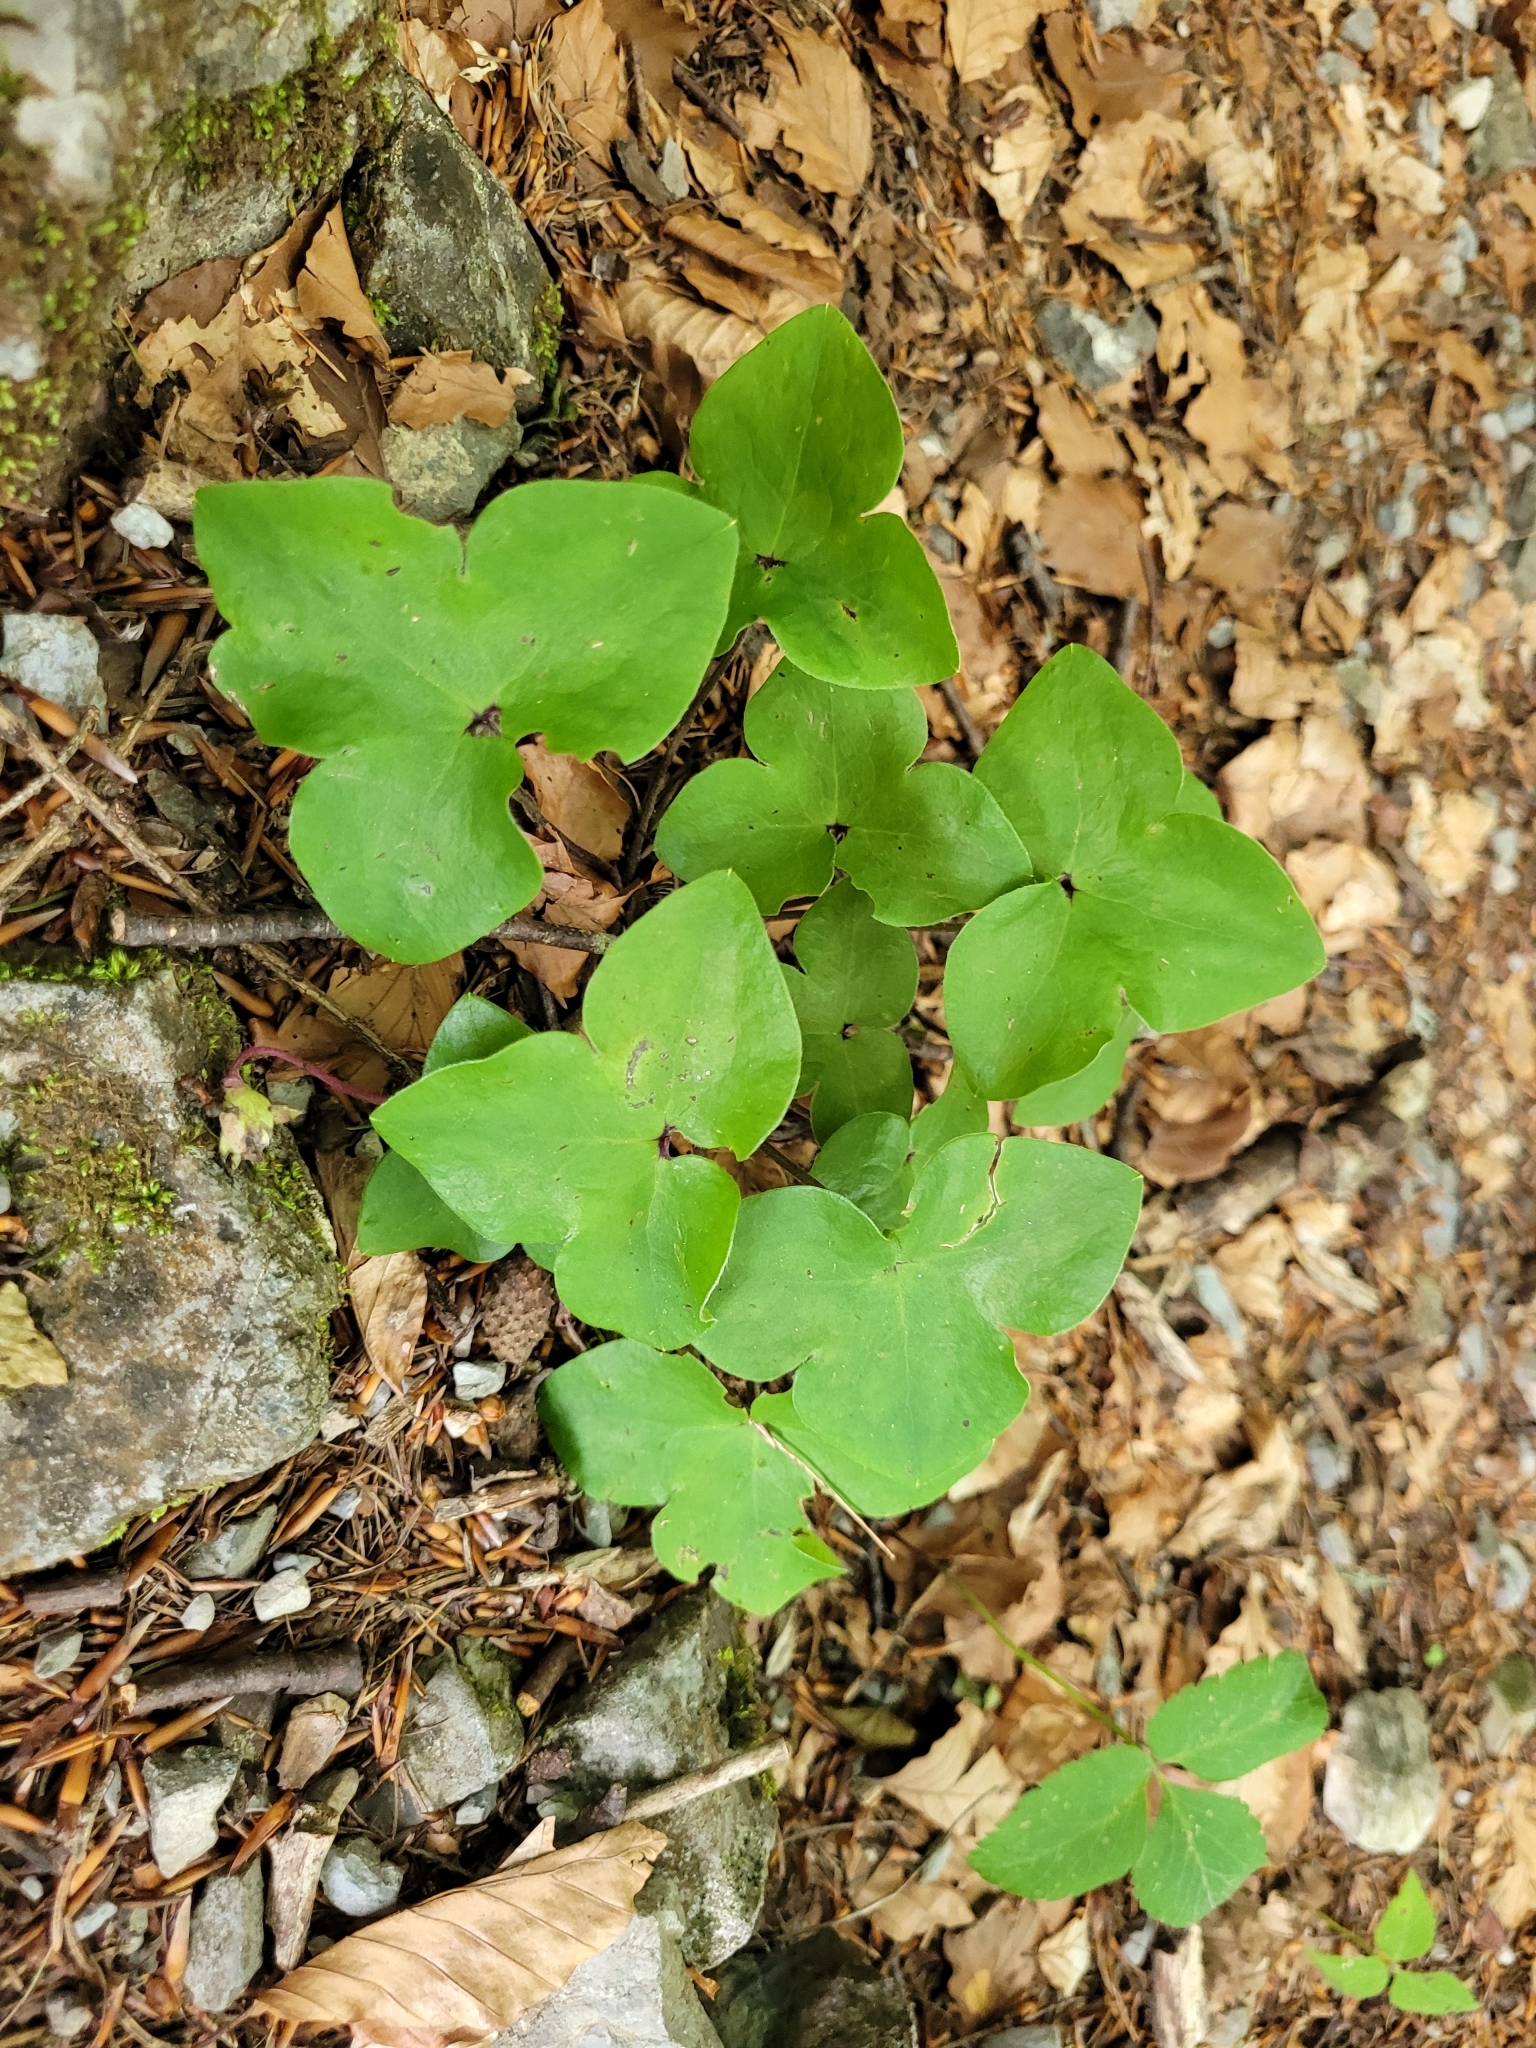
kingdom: Plantae
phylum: Tracheophyta
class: Magnoliopsida
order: Ranunculales
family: Ranunculaceae
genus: Hepatica
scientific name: Hepatica nobilis
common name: Liverleaf
